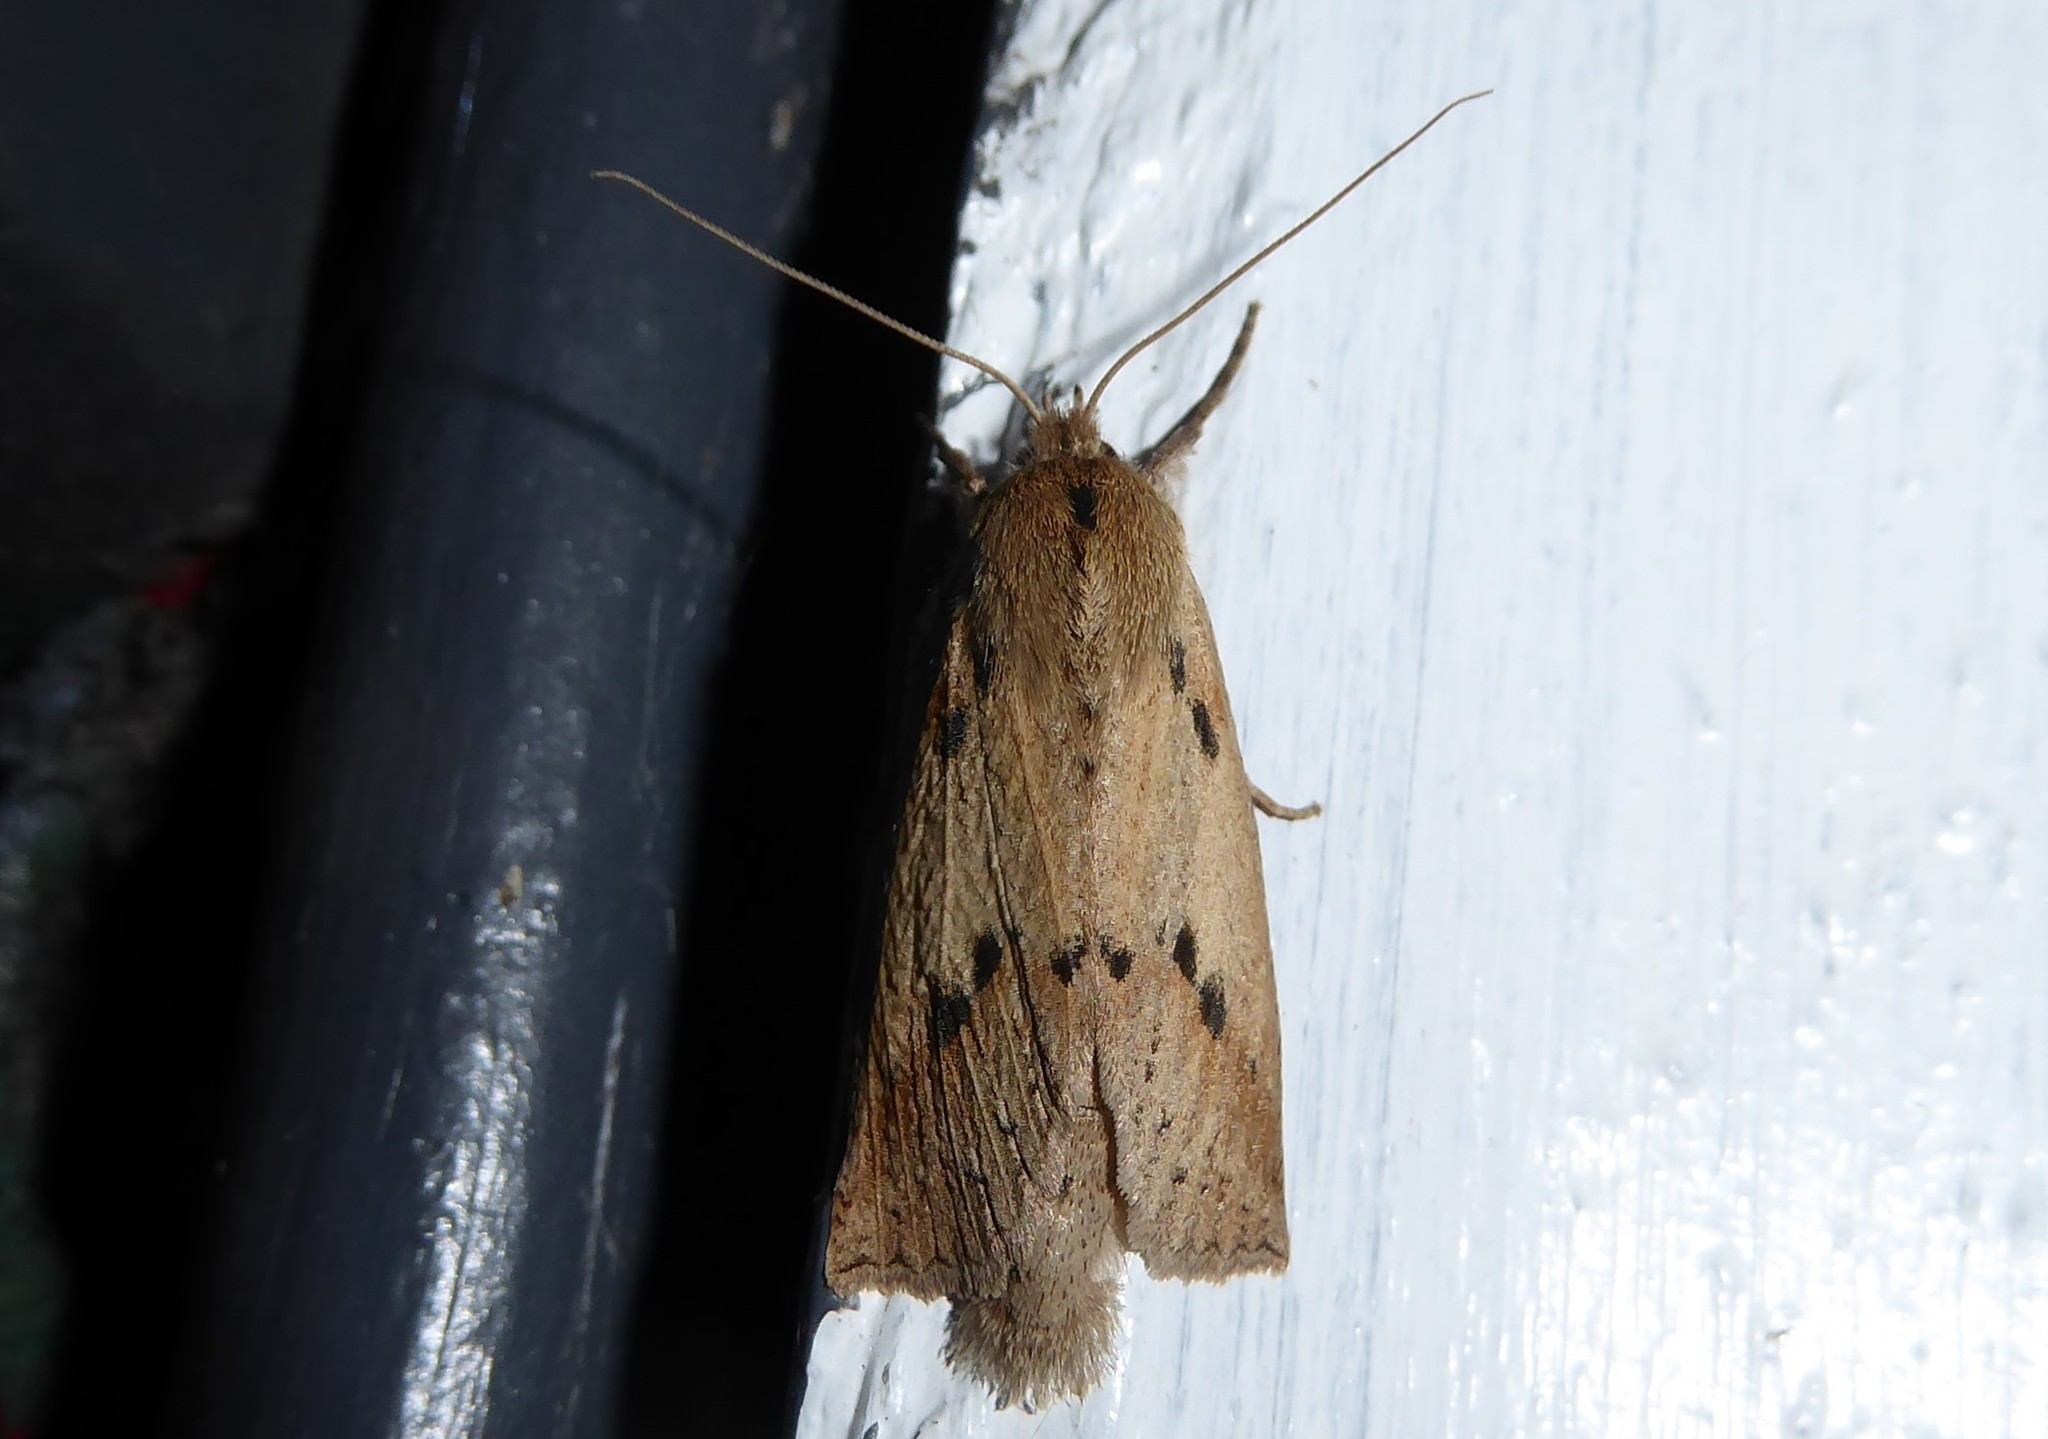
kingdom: Animalia
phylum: Arthropoda
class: Insecta
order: Lepidoptera
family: Geometridae
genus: Declana
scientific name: Declana leptomera
